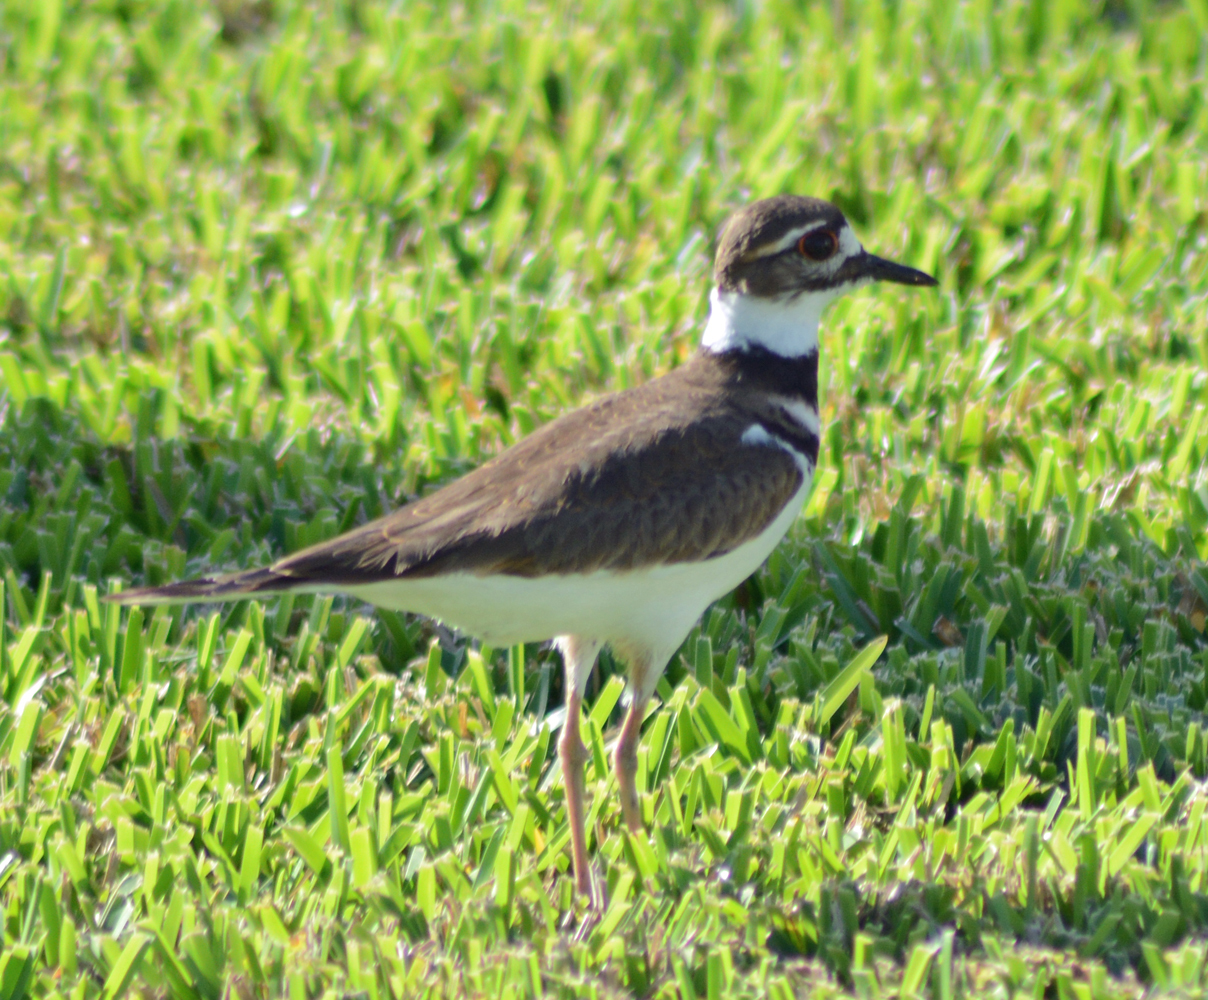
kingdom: Animalia
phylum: Chordata
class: Aves
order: Charadriiformes
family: Charadriidae
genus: Charadrius
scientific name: Charadrius vociferus
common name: Killdeer
